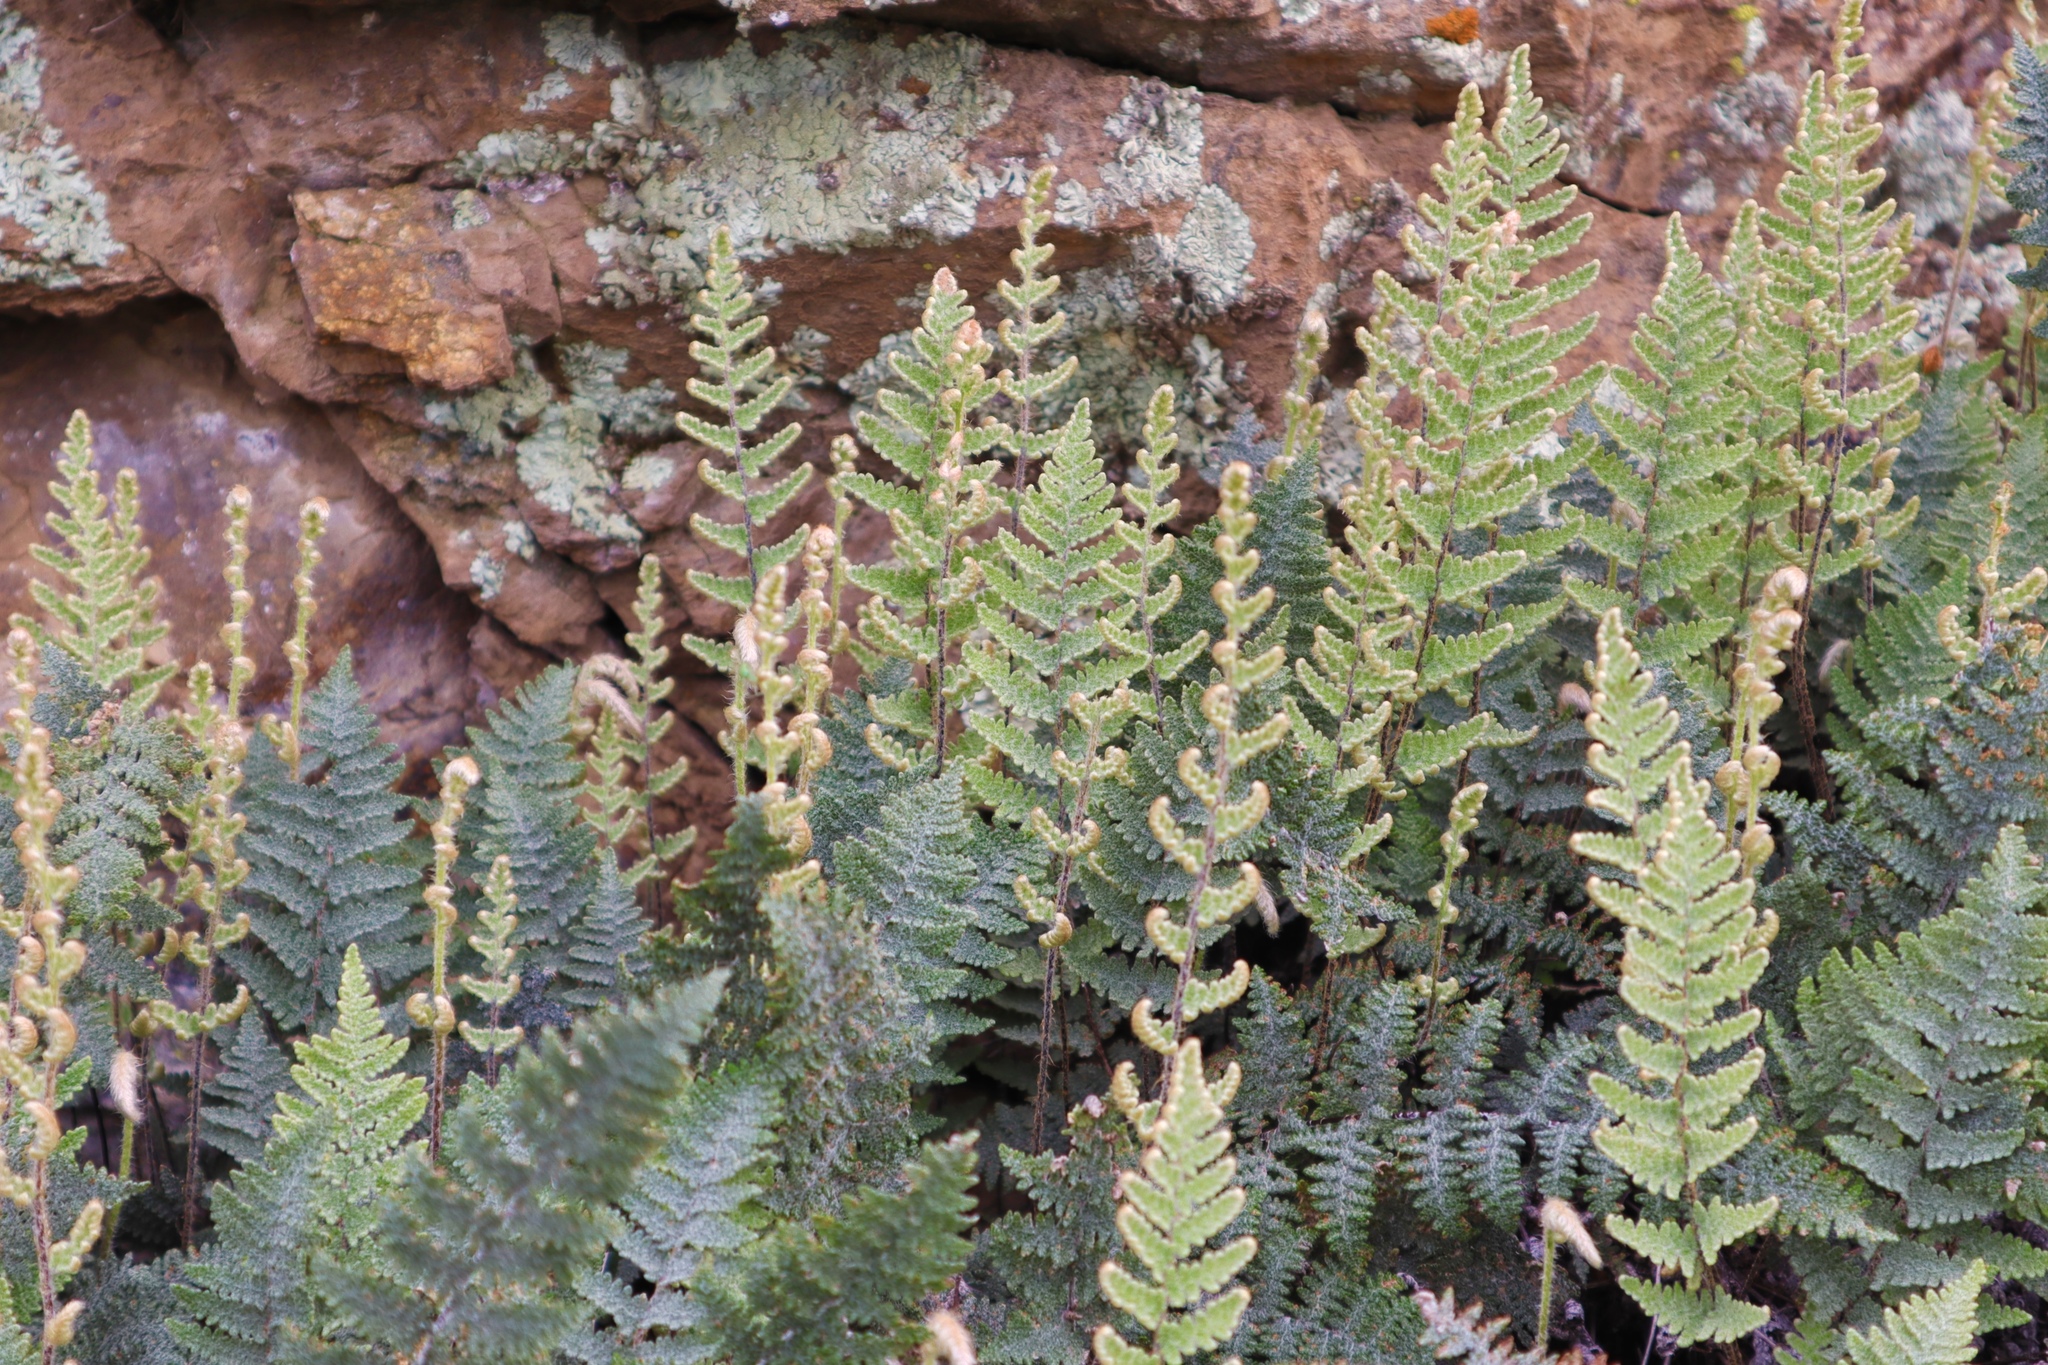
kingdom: Plantae
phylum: Tracheophyta
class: Polypodiopsida
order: Polypodiales
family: Pteridaceae
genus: Myriopteris
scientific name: Myriopteris lindheimeri
